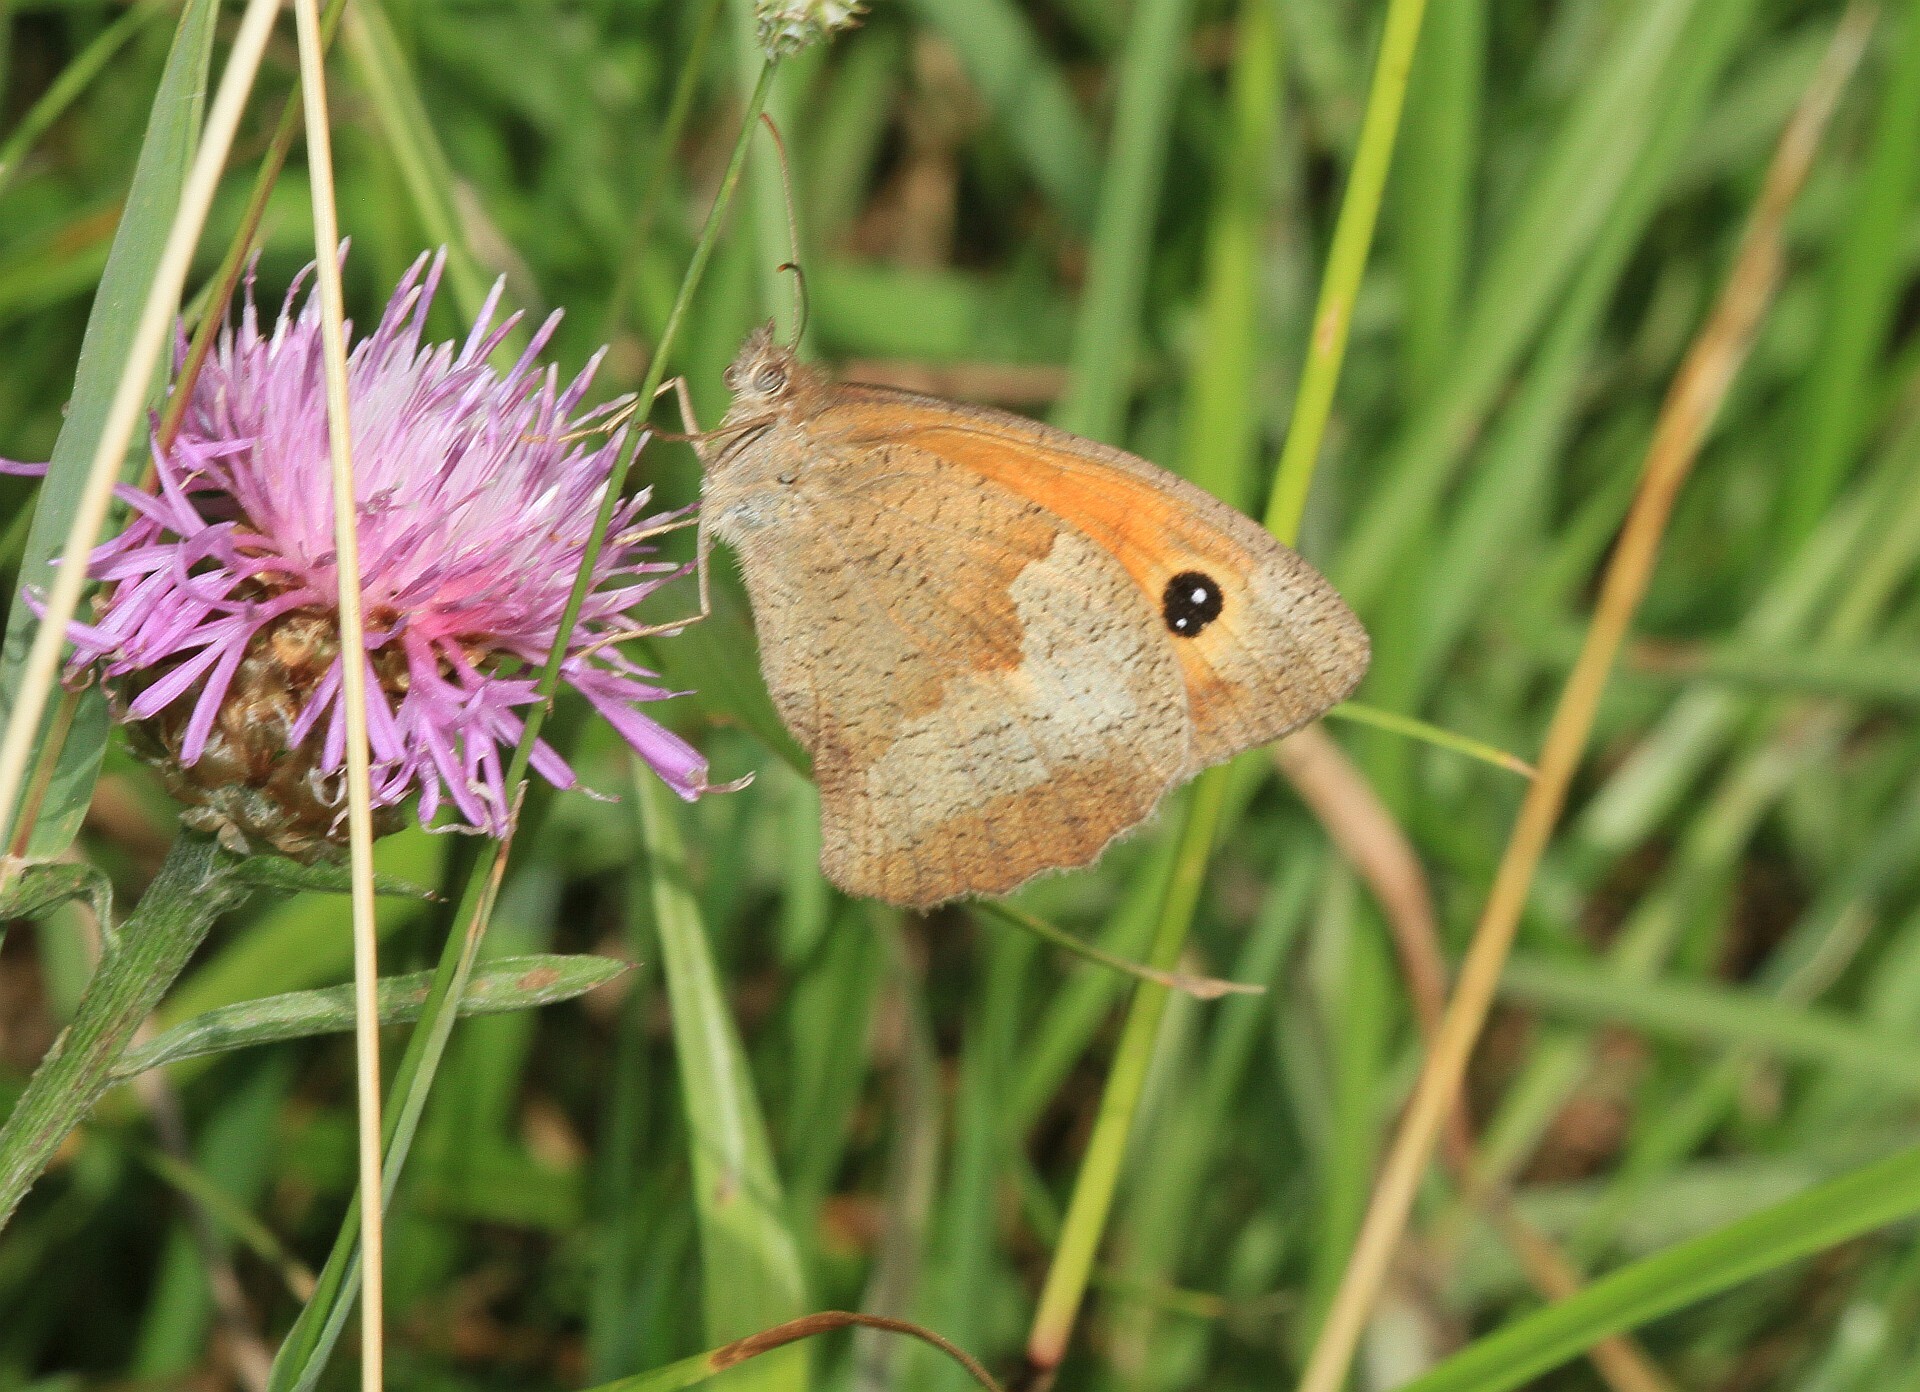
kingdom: Animalia
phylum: Arthropoda
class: Insecta
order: Lepidoptera
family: Nymphalidae
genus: Maniola
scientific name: Maniola jurtina
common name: Meadow brown
